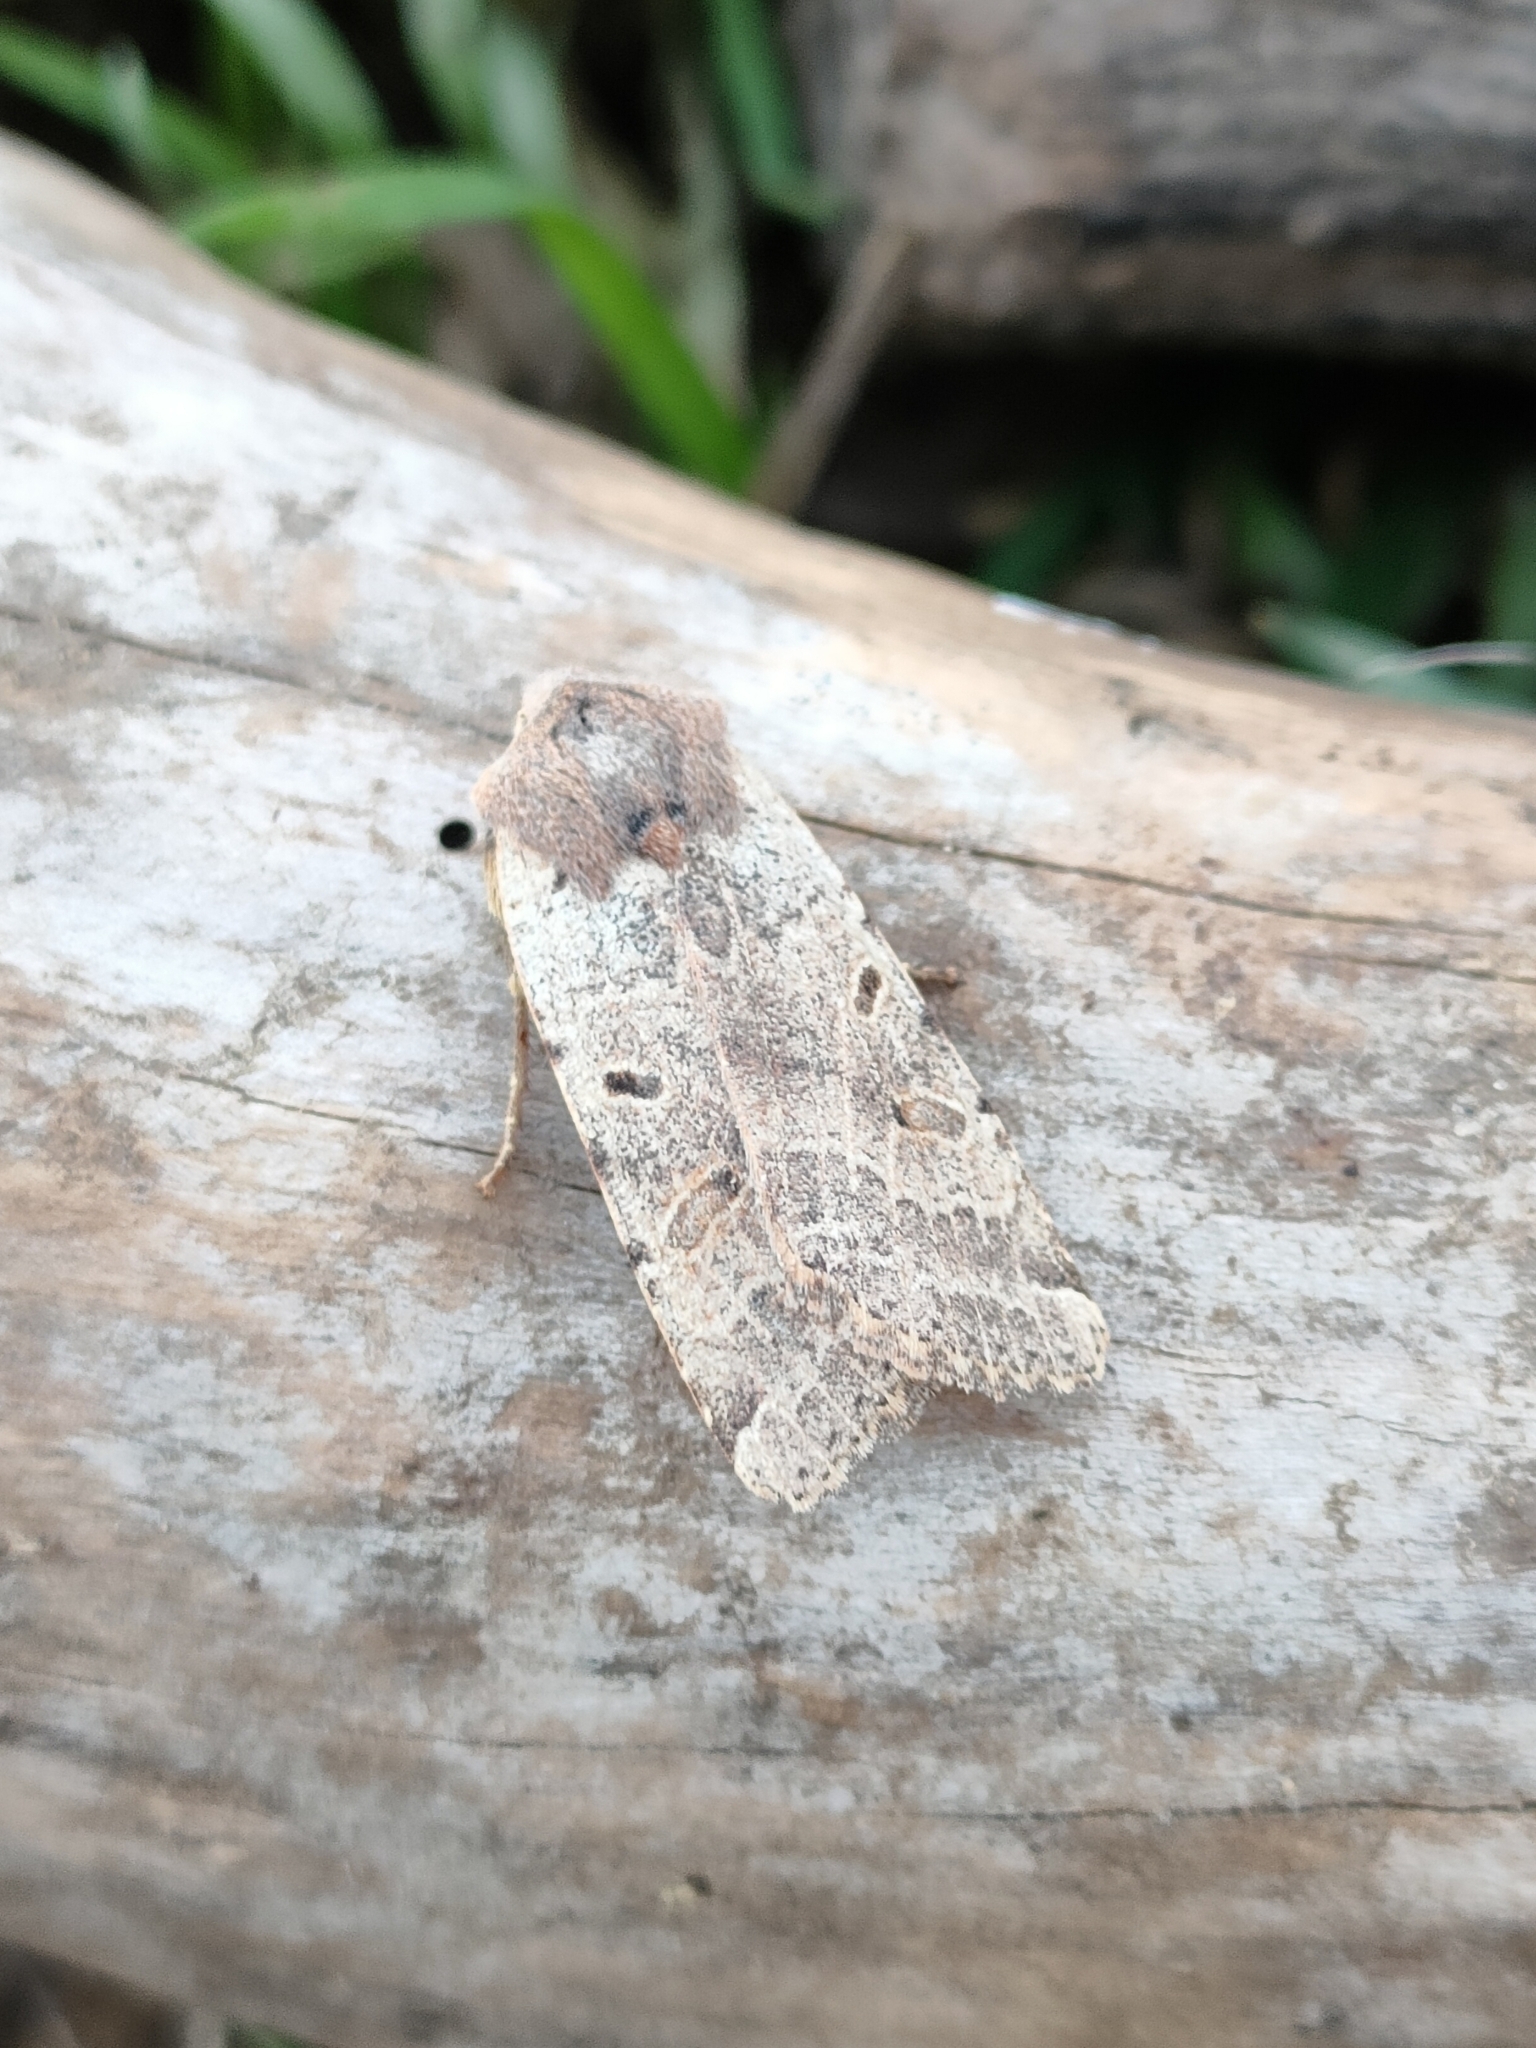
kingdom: Animalia
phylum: Arthropoda
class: Insecta
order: Lepidoptera
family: Noctuidae
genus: Agrochola
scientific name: Agrochola lychnidis
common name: Beaded chestnut
